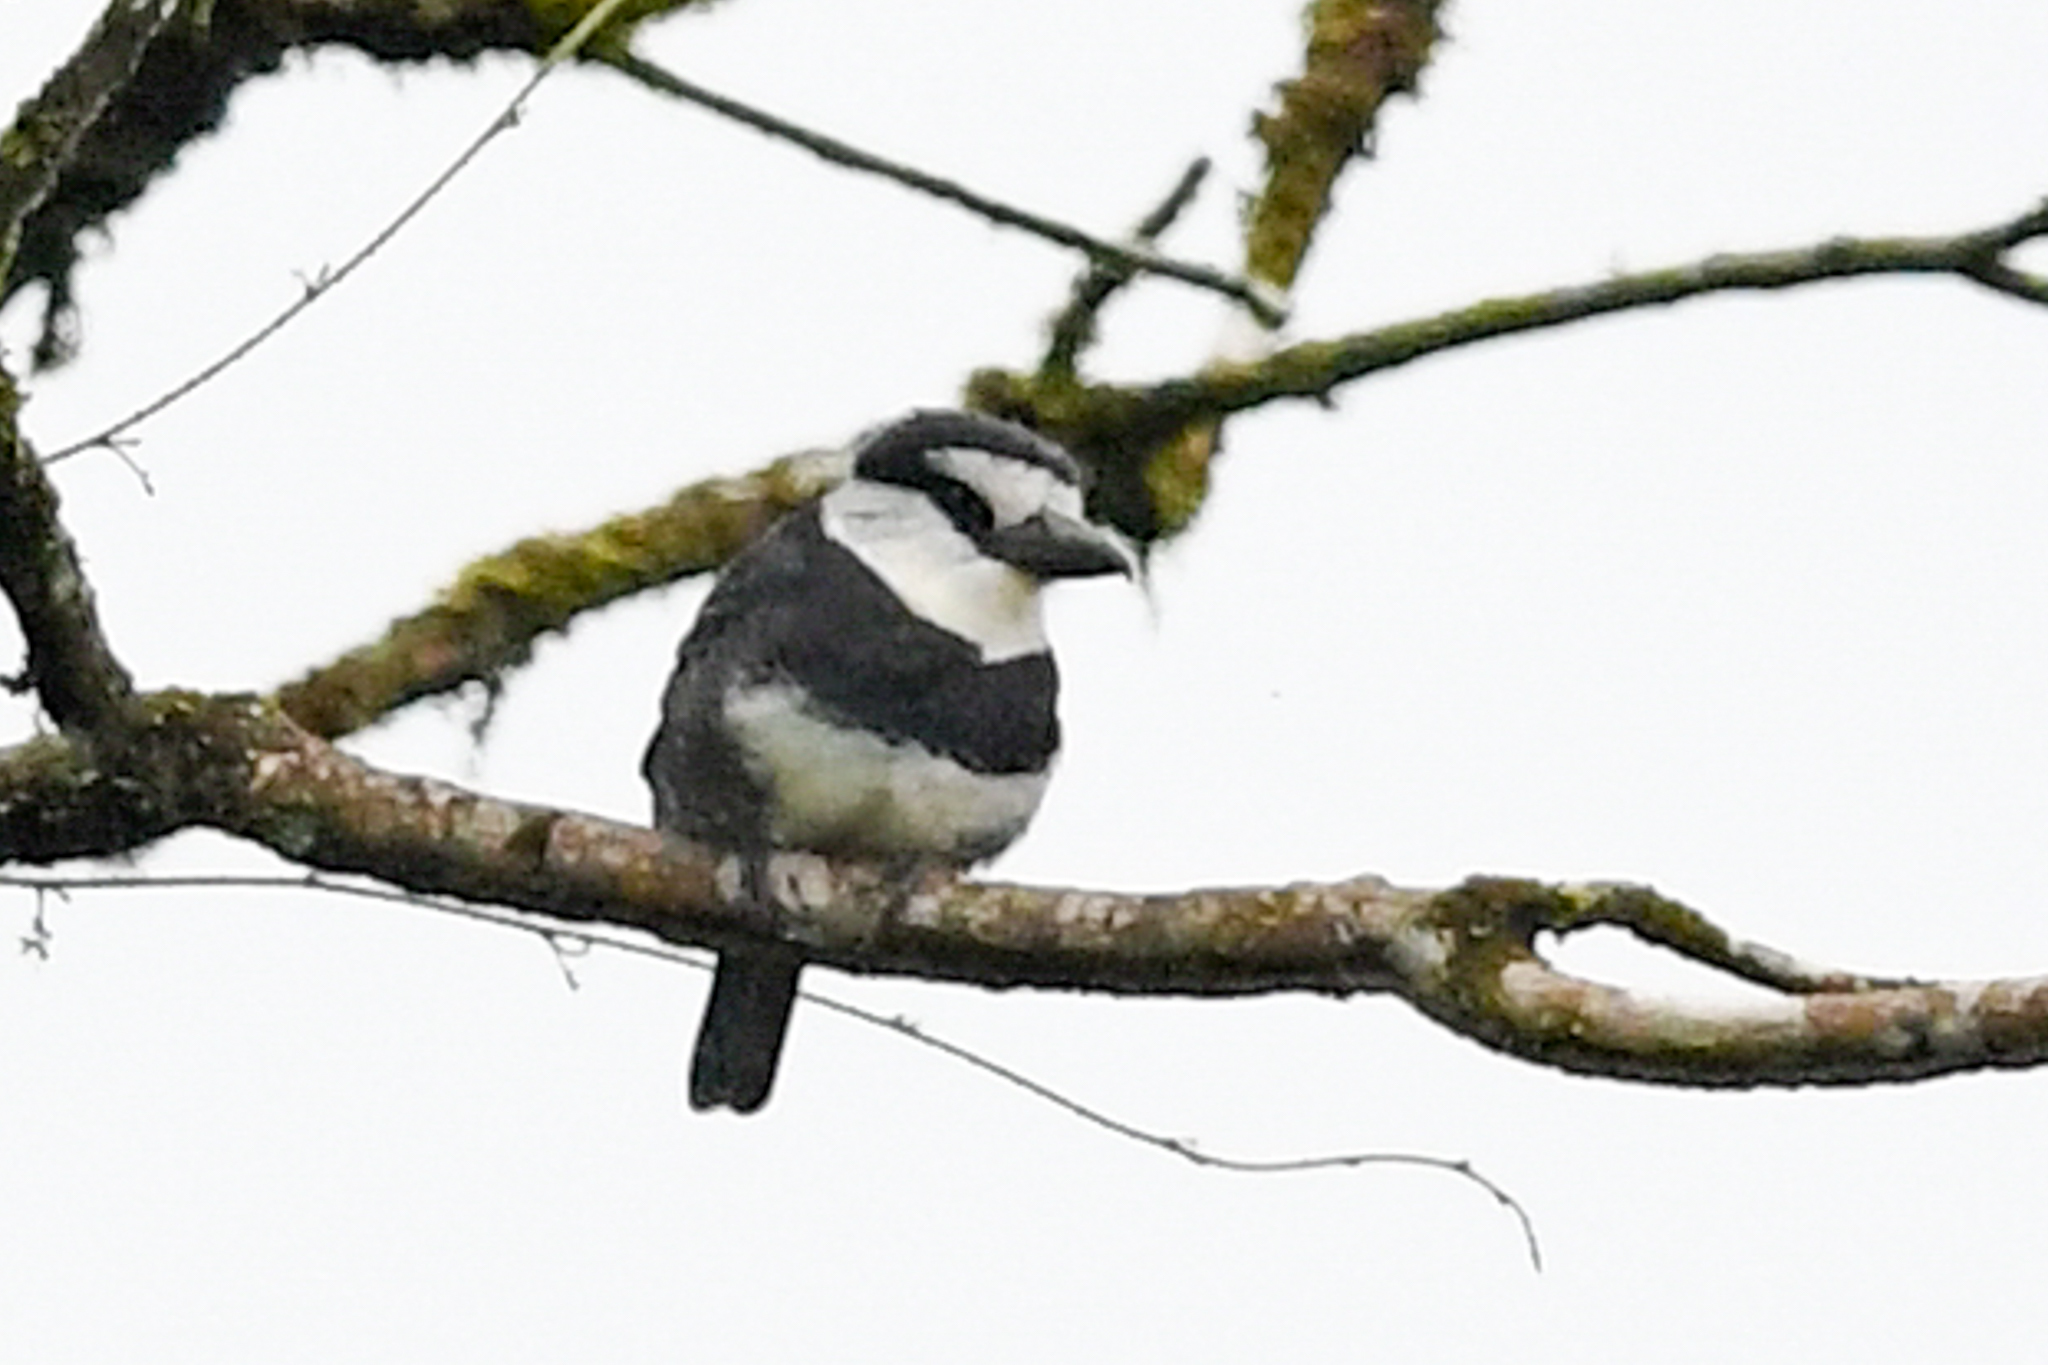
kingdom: Animalia
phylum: Chordata
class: Aves
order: Piciformes
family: Bucconidae
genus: Notharchus
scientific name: Notharchus hyperrhynchus
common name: White-necked puffbird
